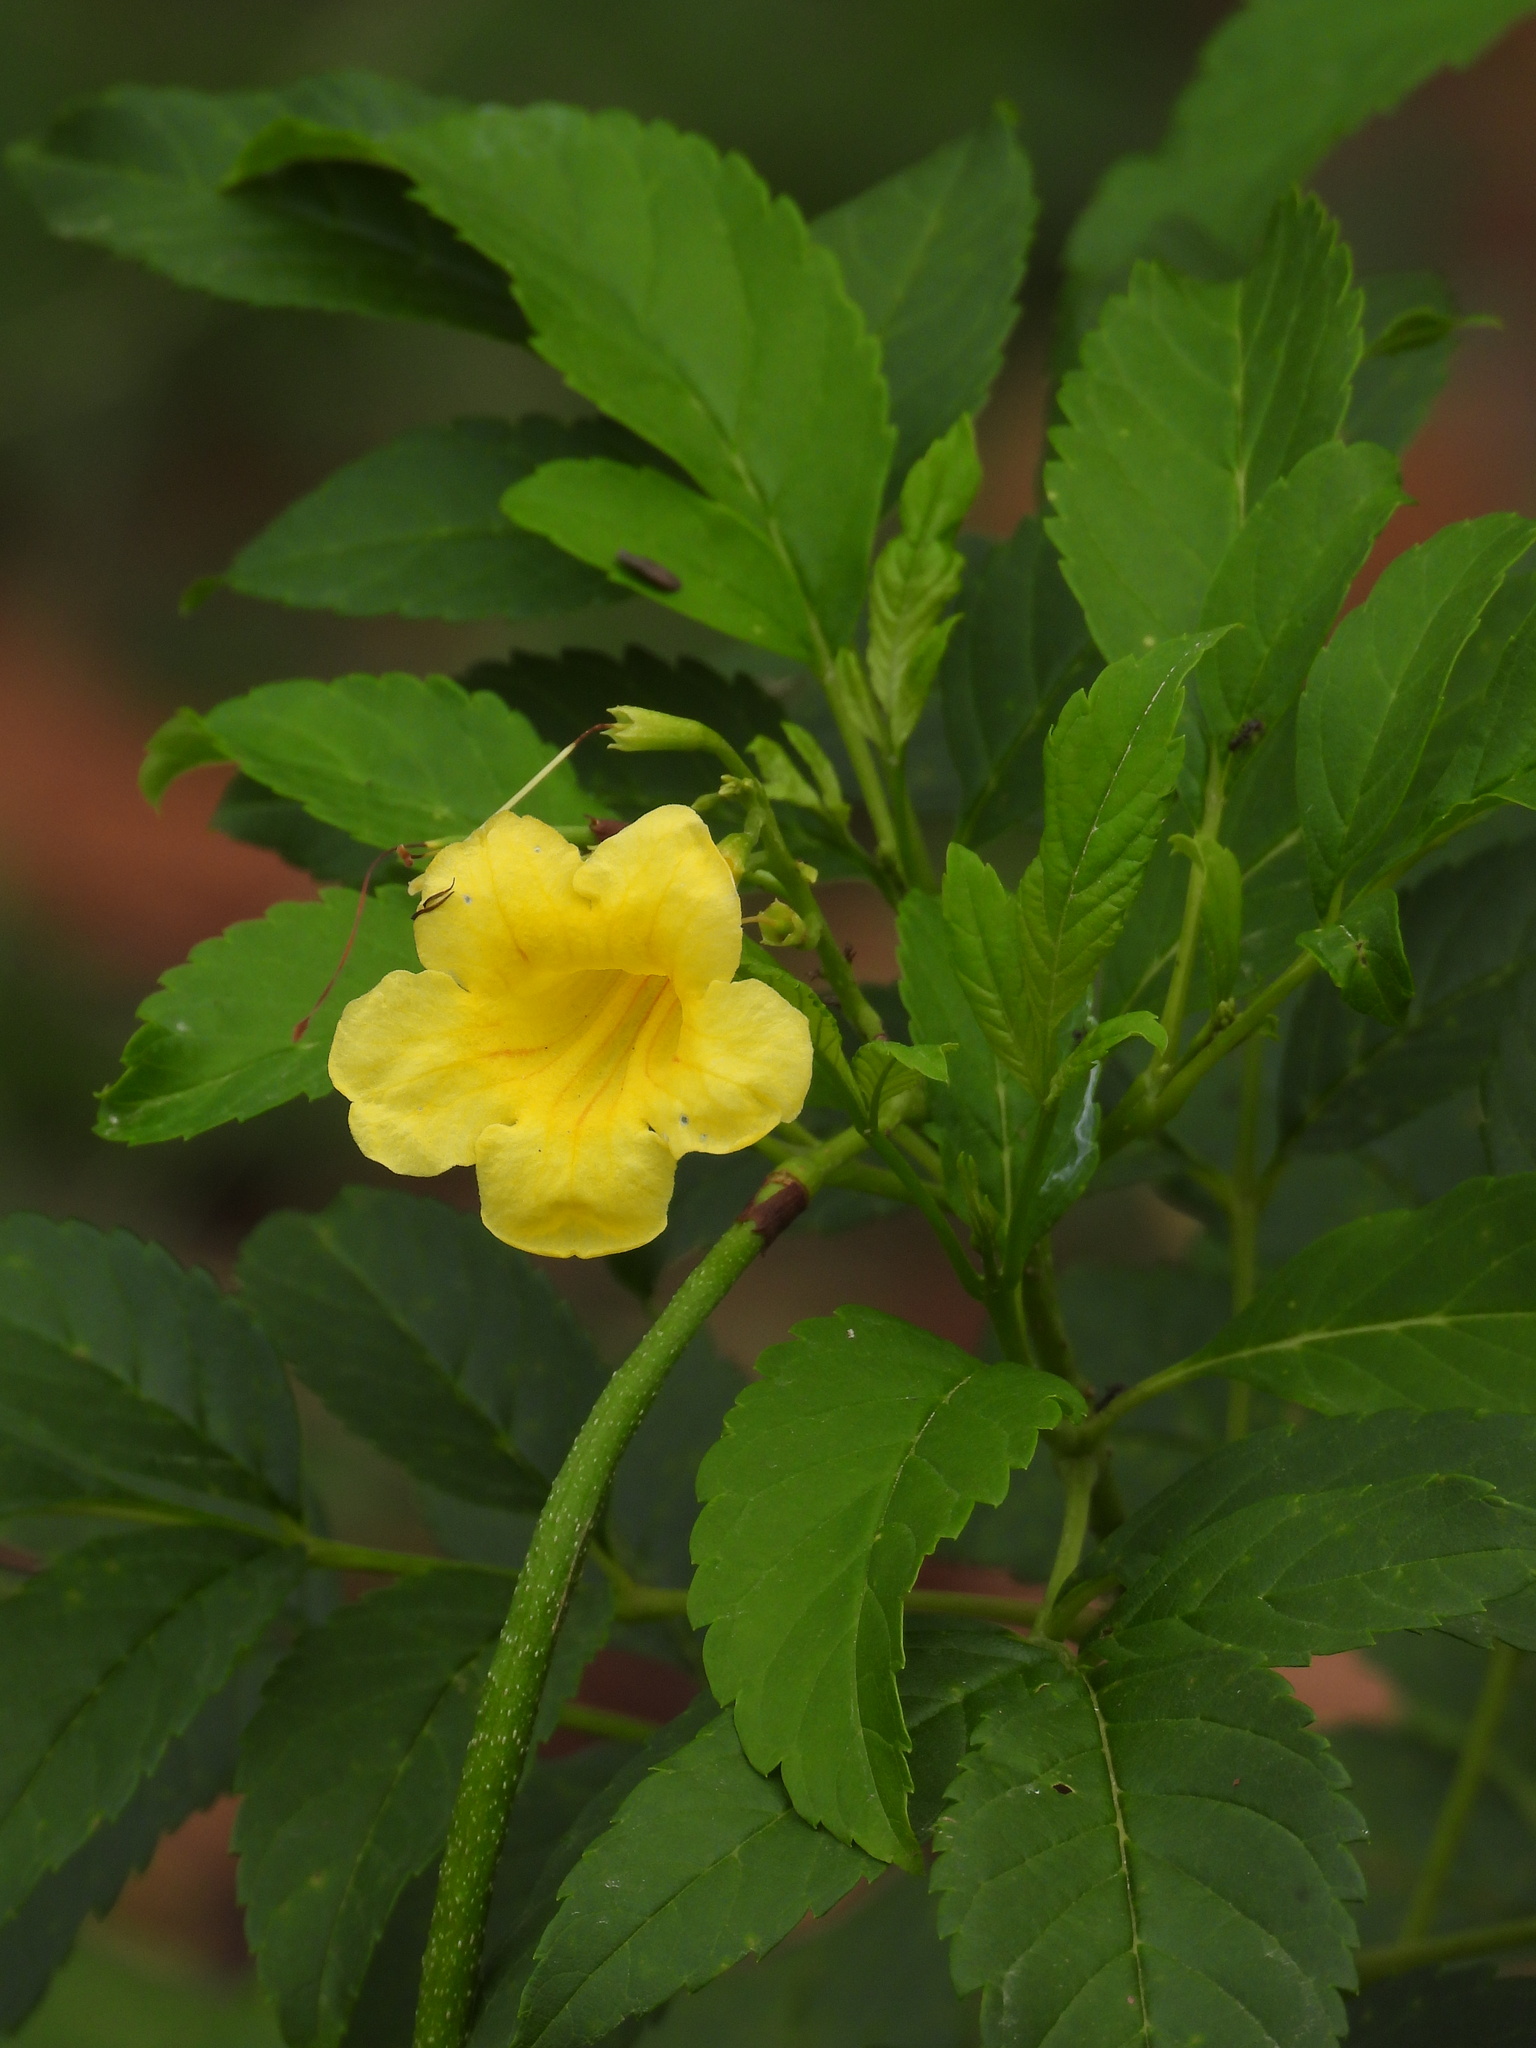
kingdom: Plantae
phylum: Tracheophyta
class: Magnoliopsida
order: Lamiales
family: Bignoniaceae
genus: Tecoma
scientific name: Tecoma stans
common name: Yellow trumpetbush
